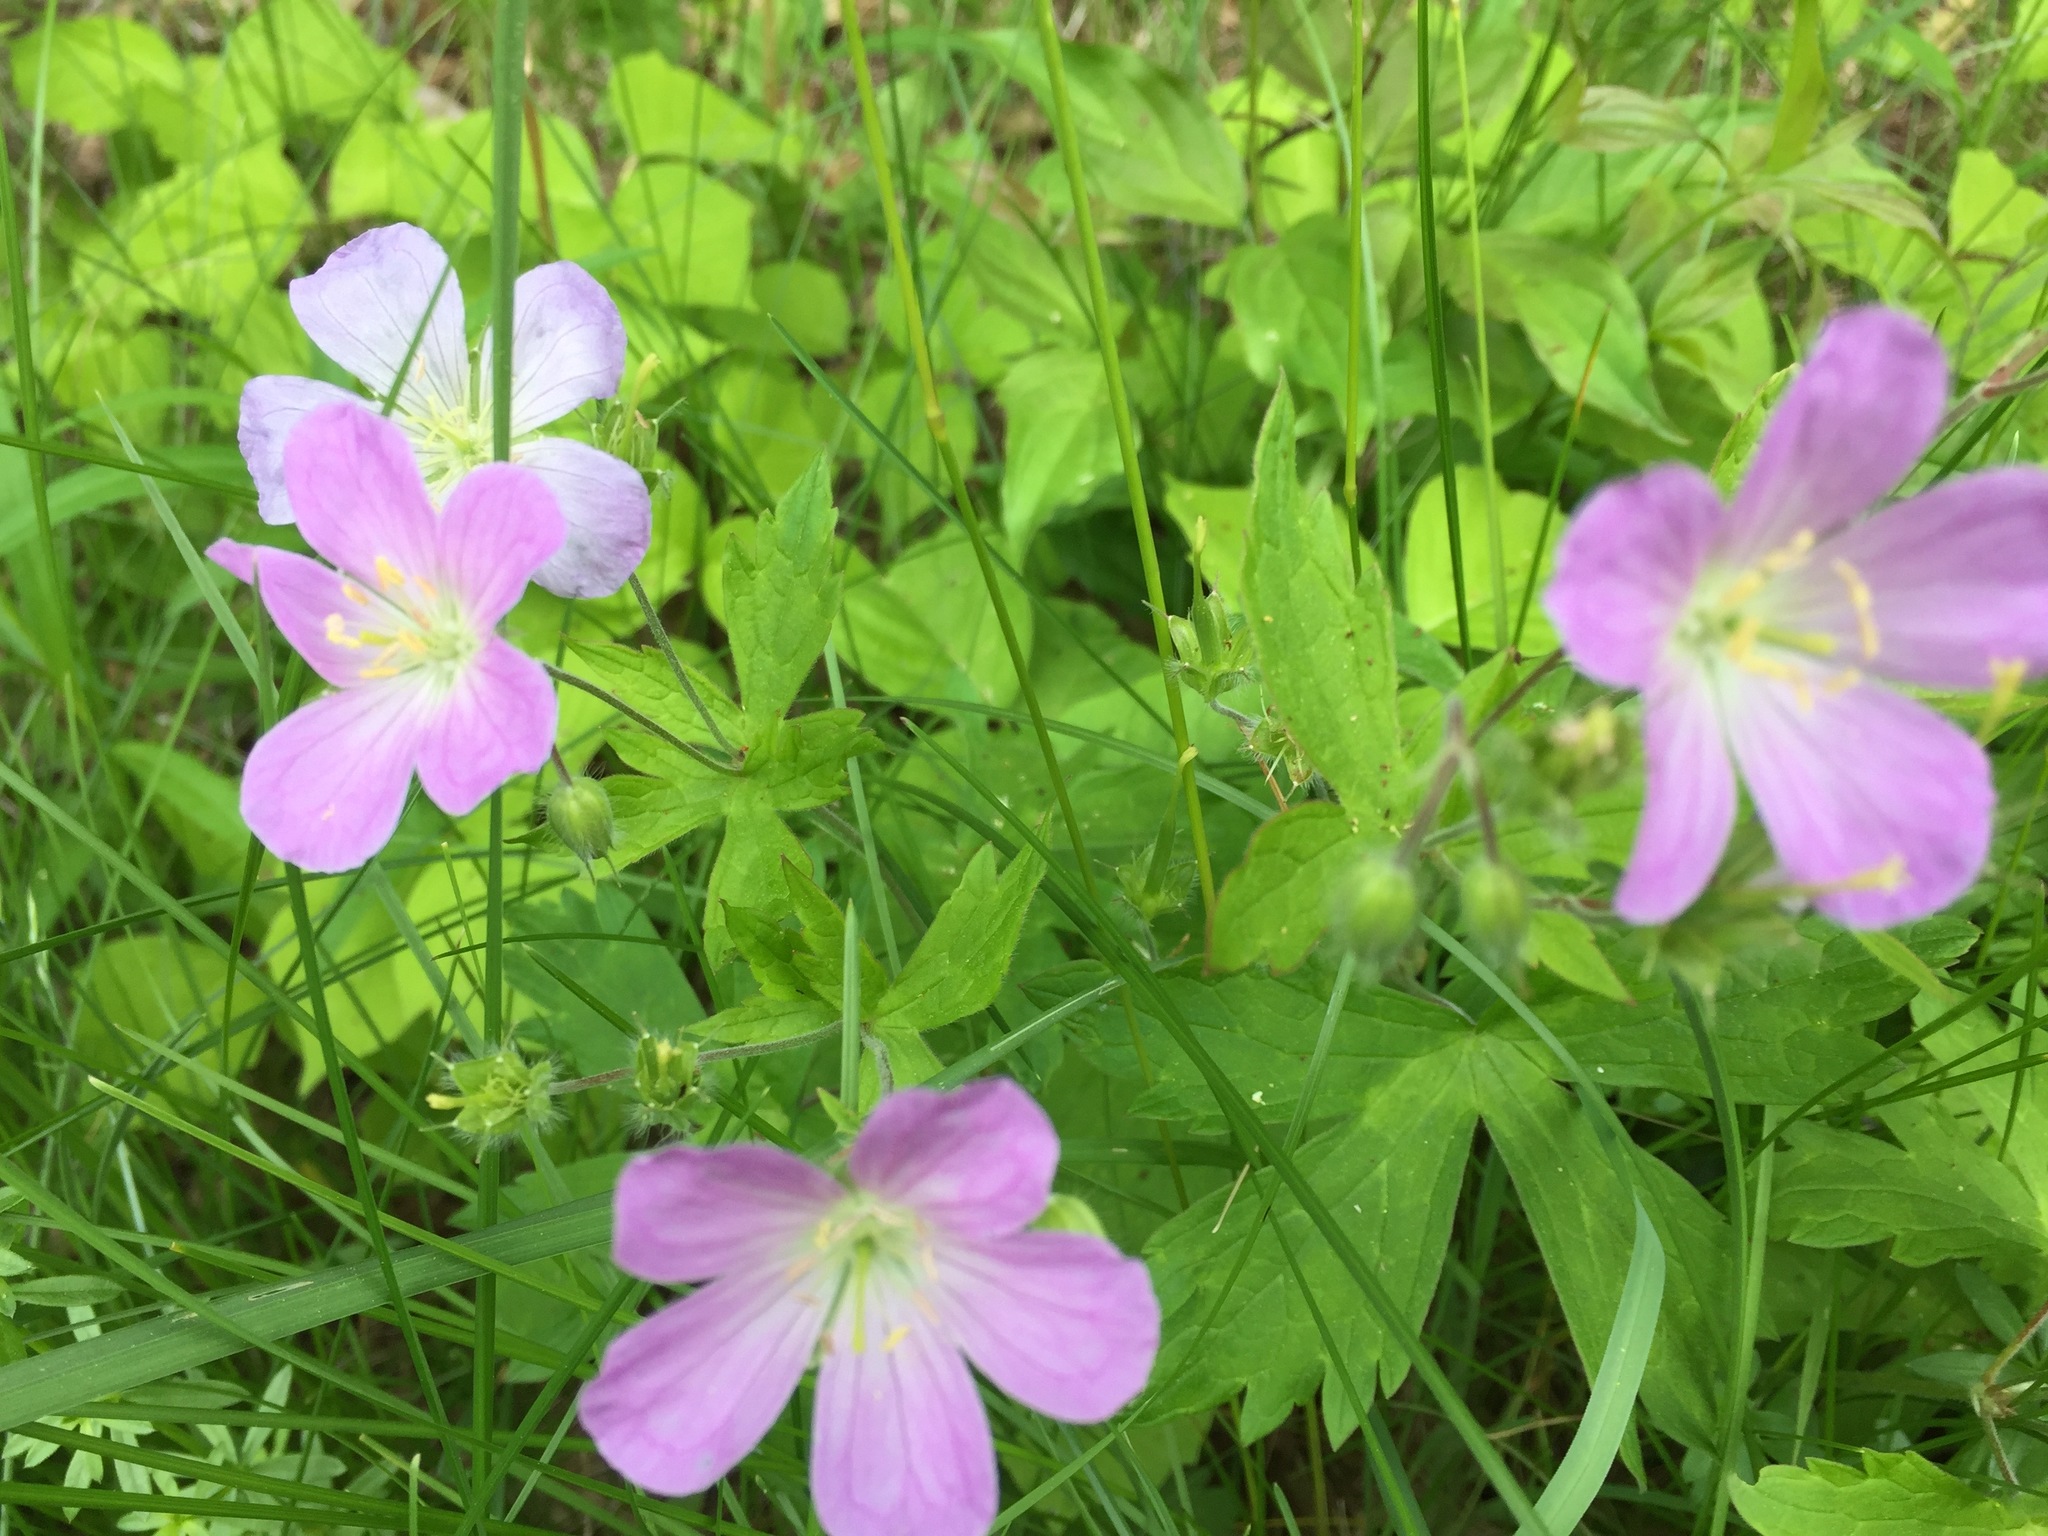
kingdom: Plantae
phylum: Tracheophyta
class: Magnoliopsida
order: Geraniales
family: Geraniaceae
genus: Geranium
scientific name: Geranium maculatum
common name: Spotted geranium
